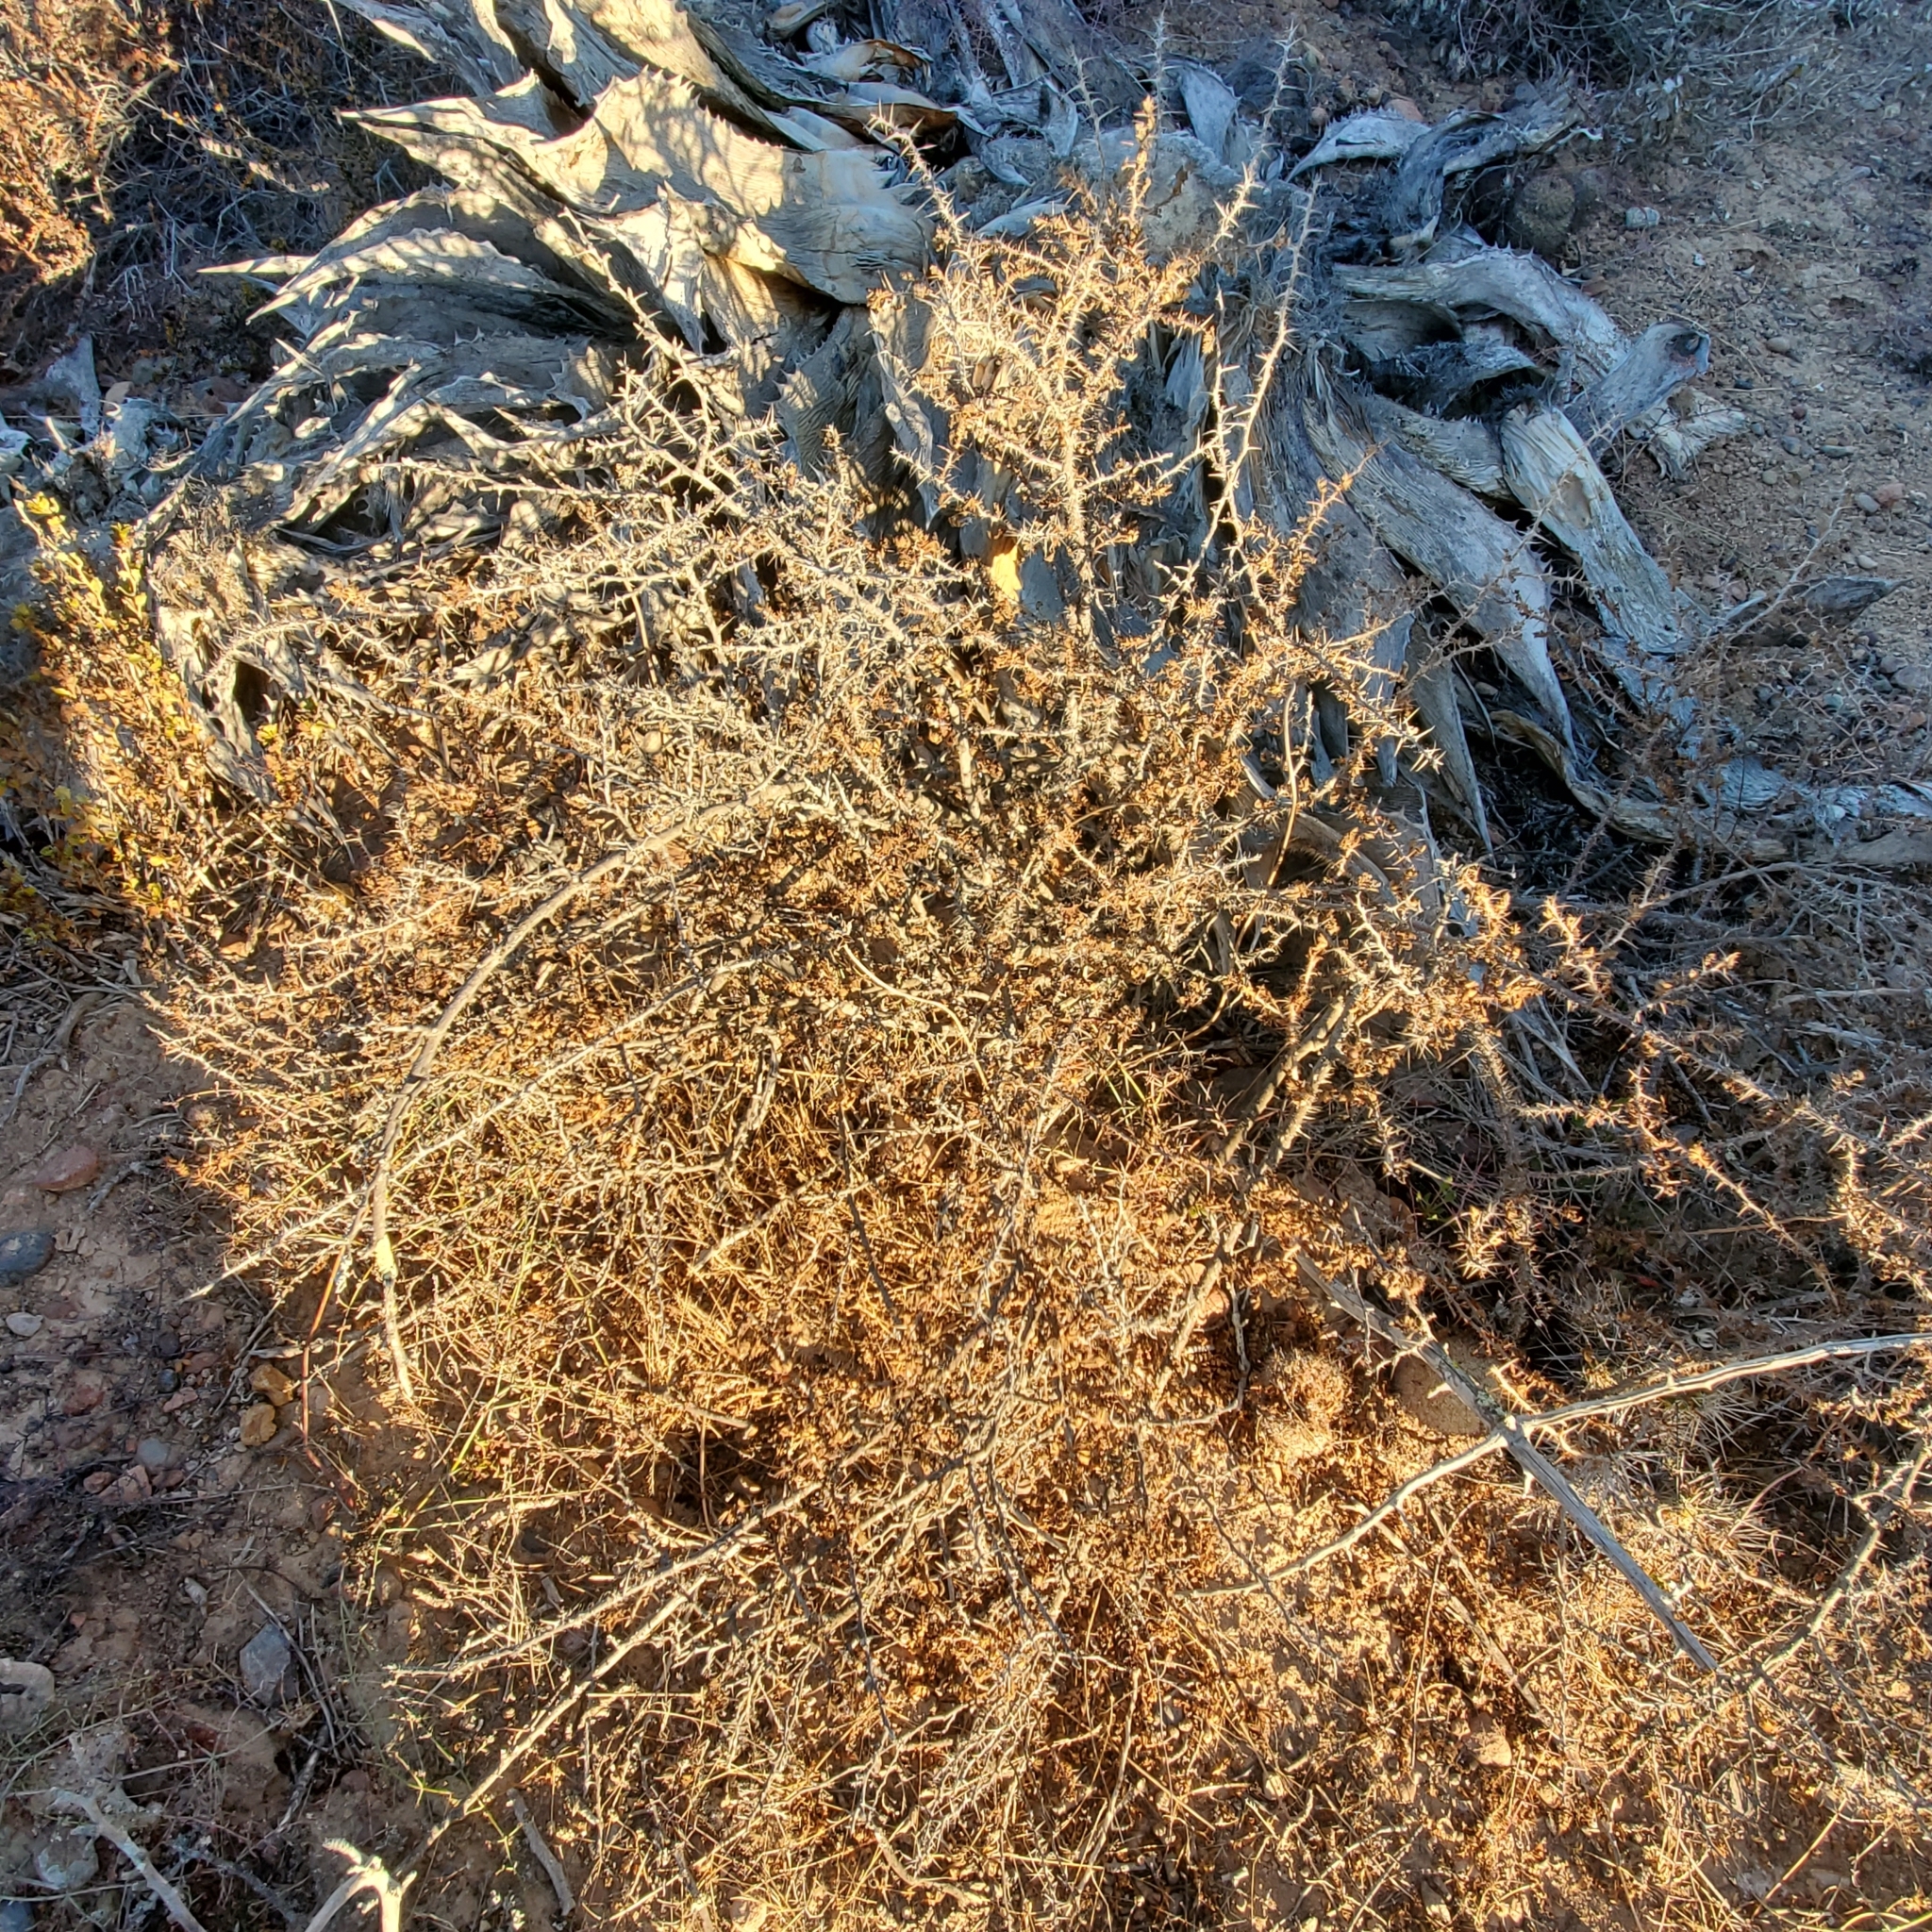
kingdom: Plantae
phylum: Tracheophyta
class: Magnoliopsida
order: Rosales
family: Rosaceae
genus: Rosa
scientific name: Rosa minutifolia
